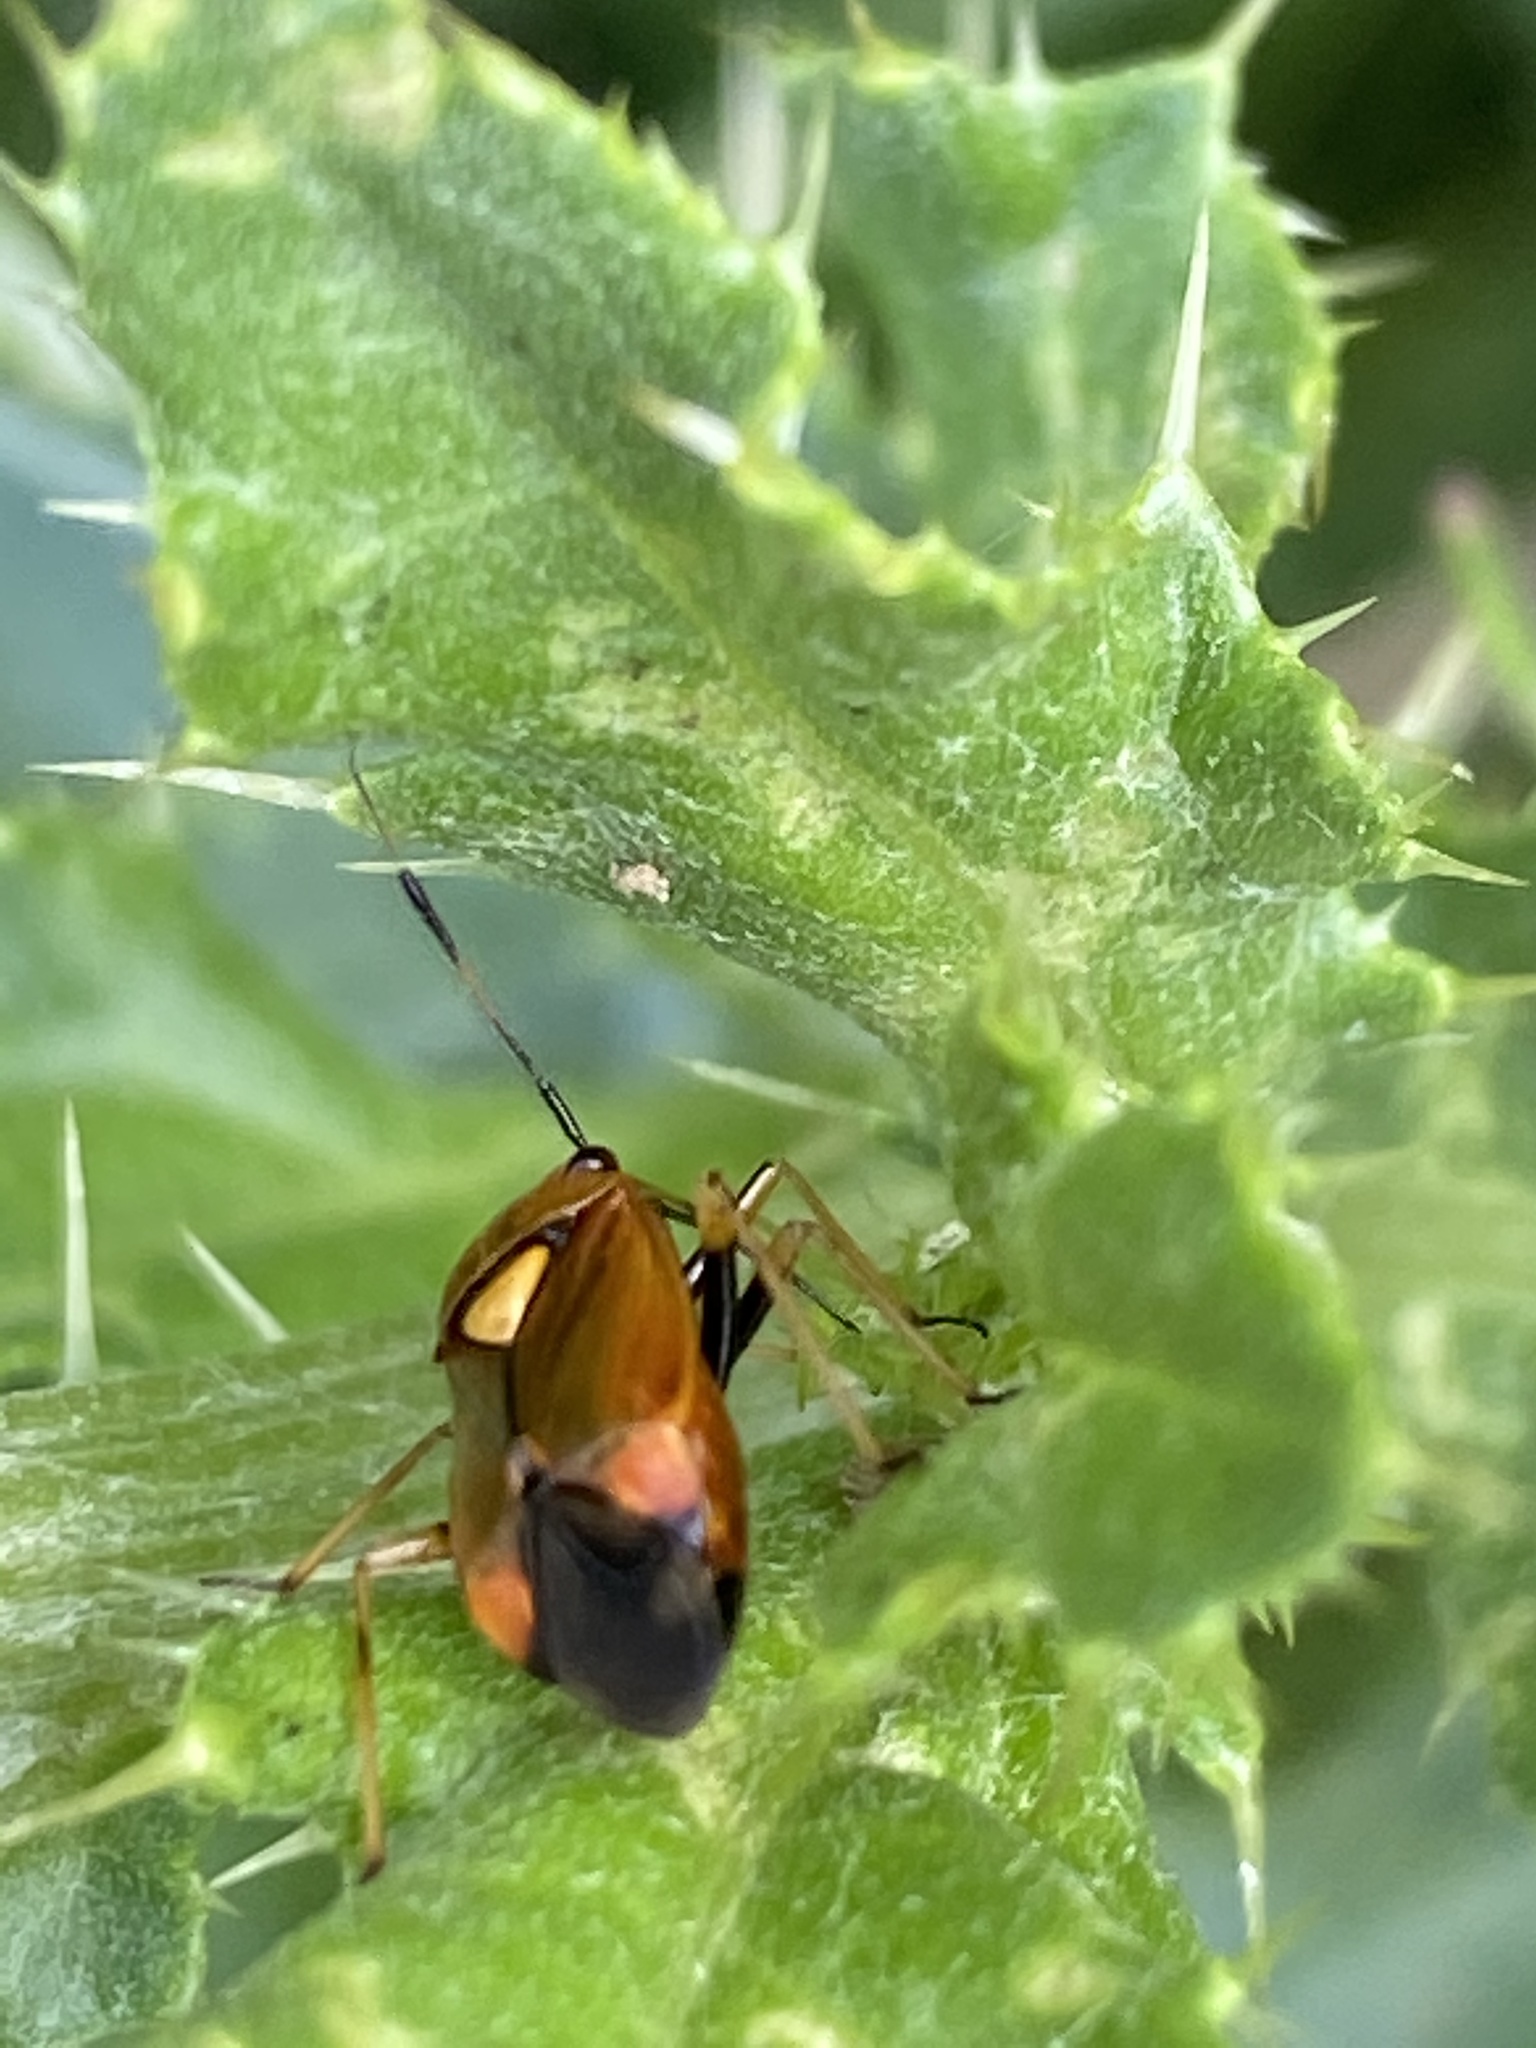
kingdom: Animalia
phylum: Arthropoda
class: Insecta
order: Hemiptera
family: Miridae
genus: Deraeocoris
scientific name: Deraeocoris ruber
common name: Plant bug
